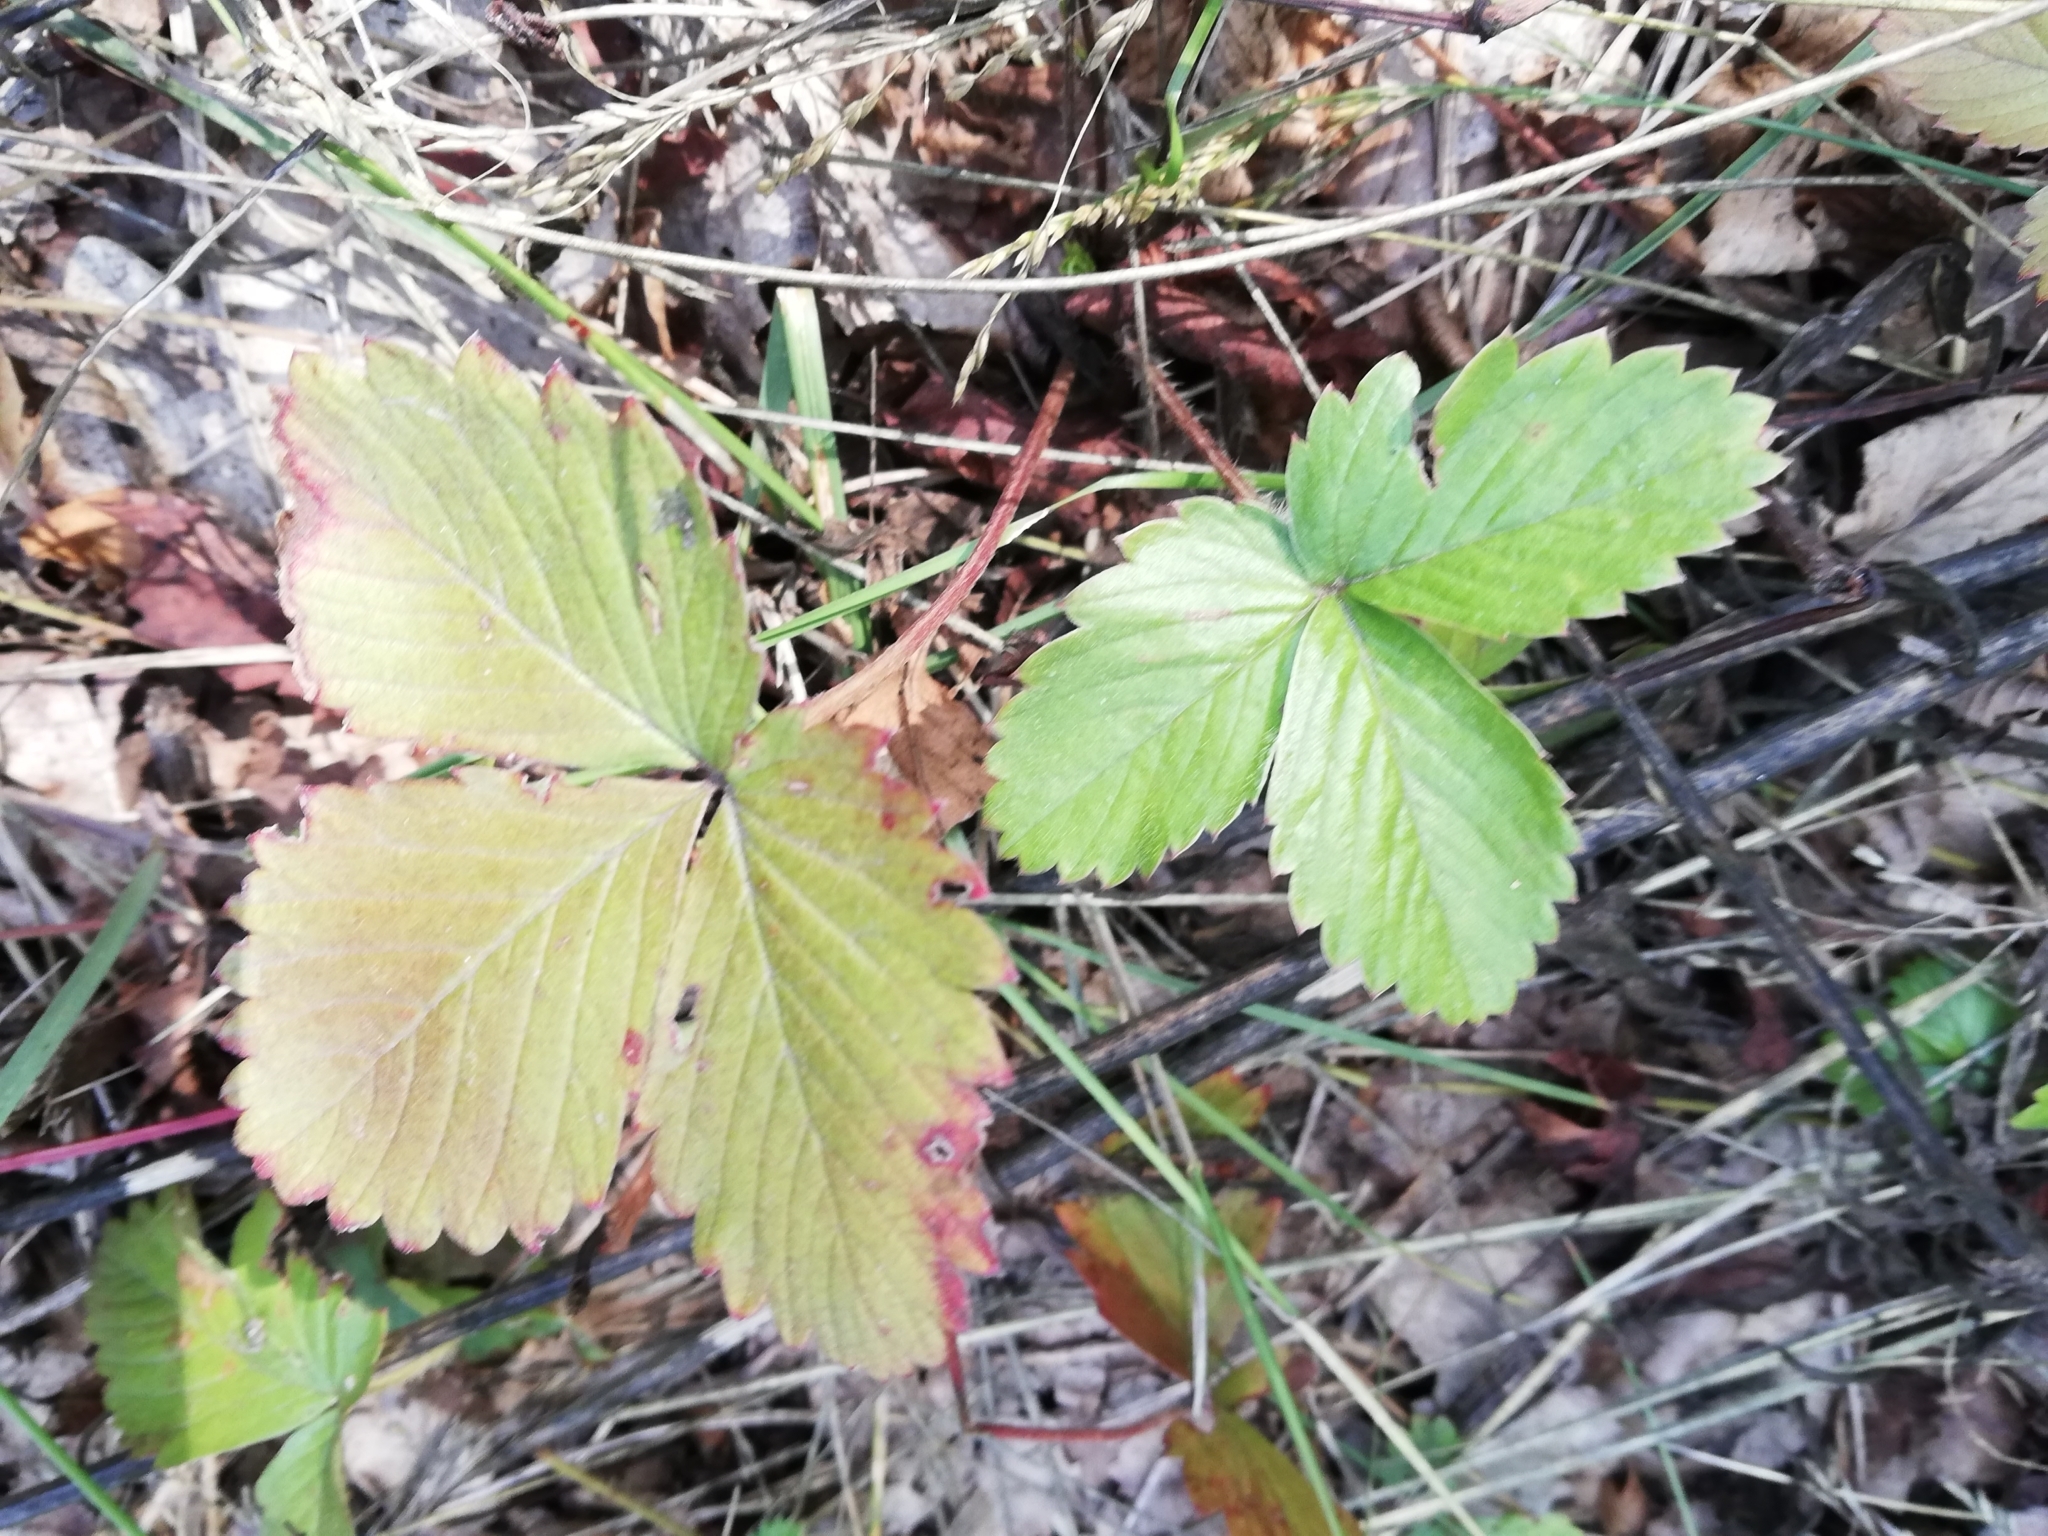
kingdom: Plantae
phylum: Tracheophyta
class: Magnoliopsida
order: Rosales
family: Rosaceae
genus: Fragaria
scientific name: Fragaria viridis
